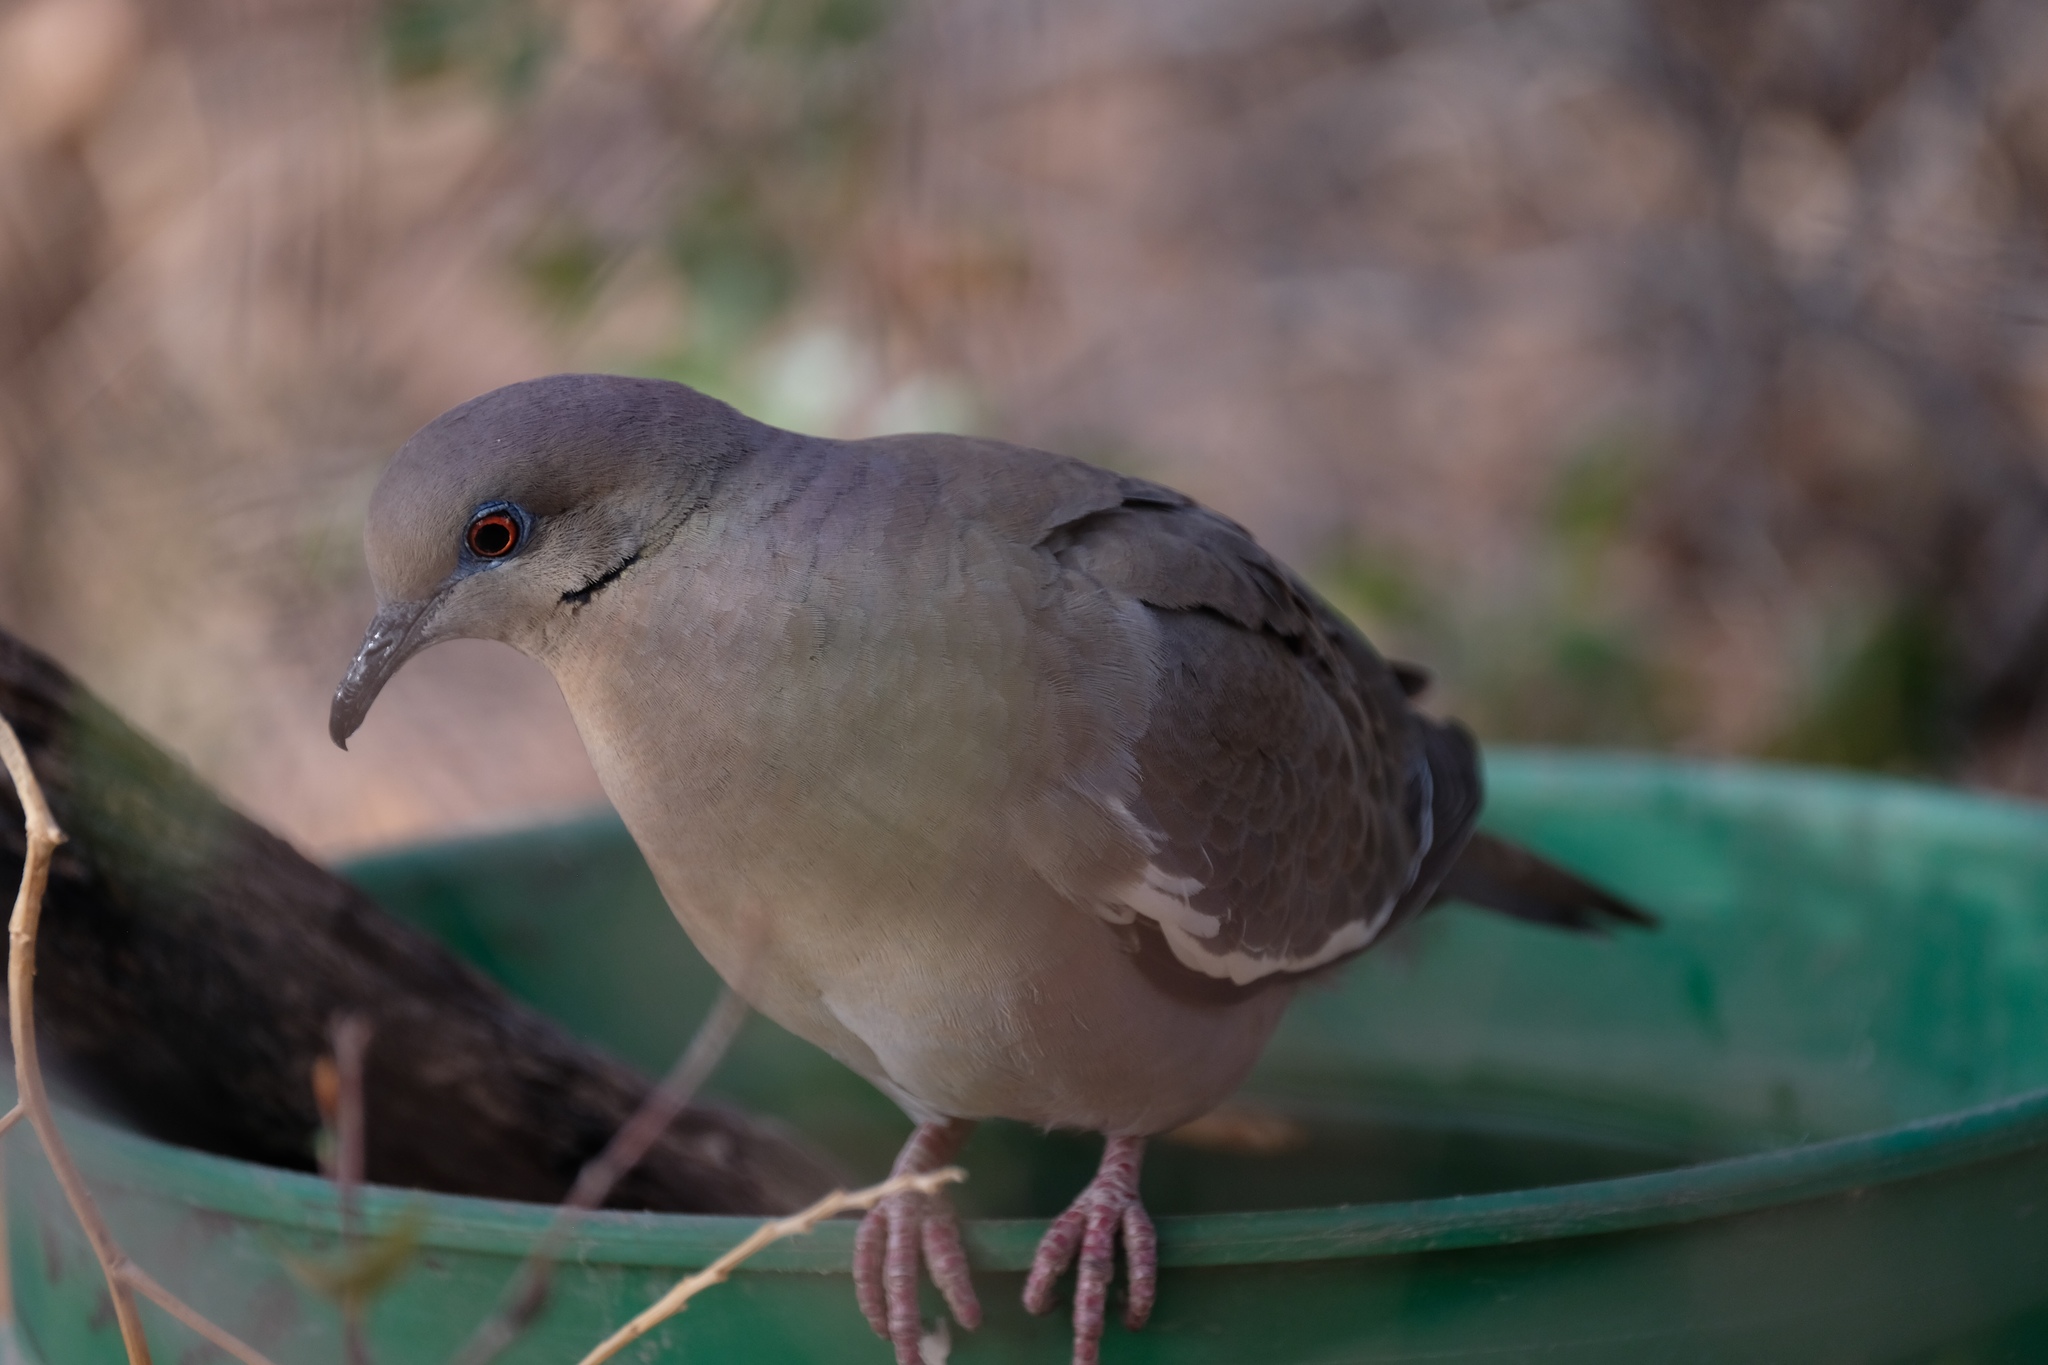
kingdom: Animalia
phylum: Chordata
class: Aves
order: Columbiformes
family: Columbidae
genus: Zenaida
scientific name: Zenaida asiatica
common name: White-winged dove
